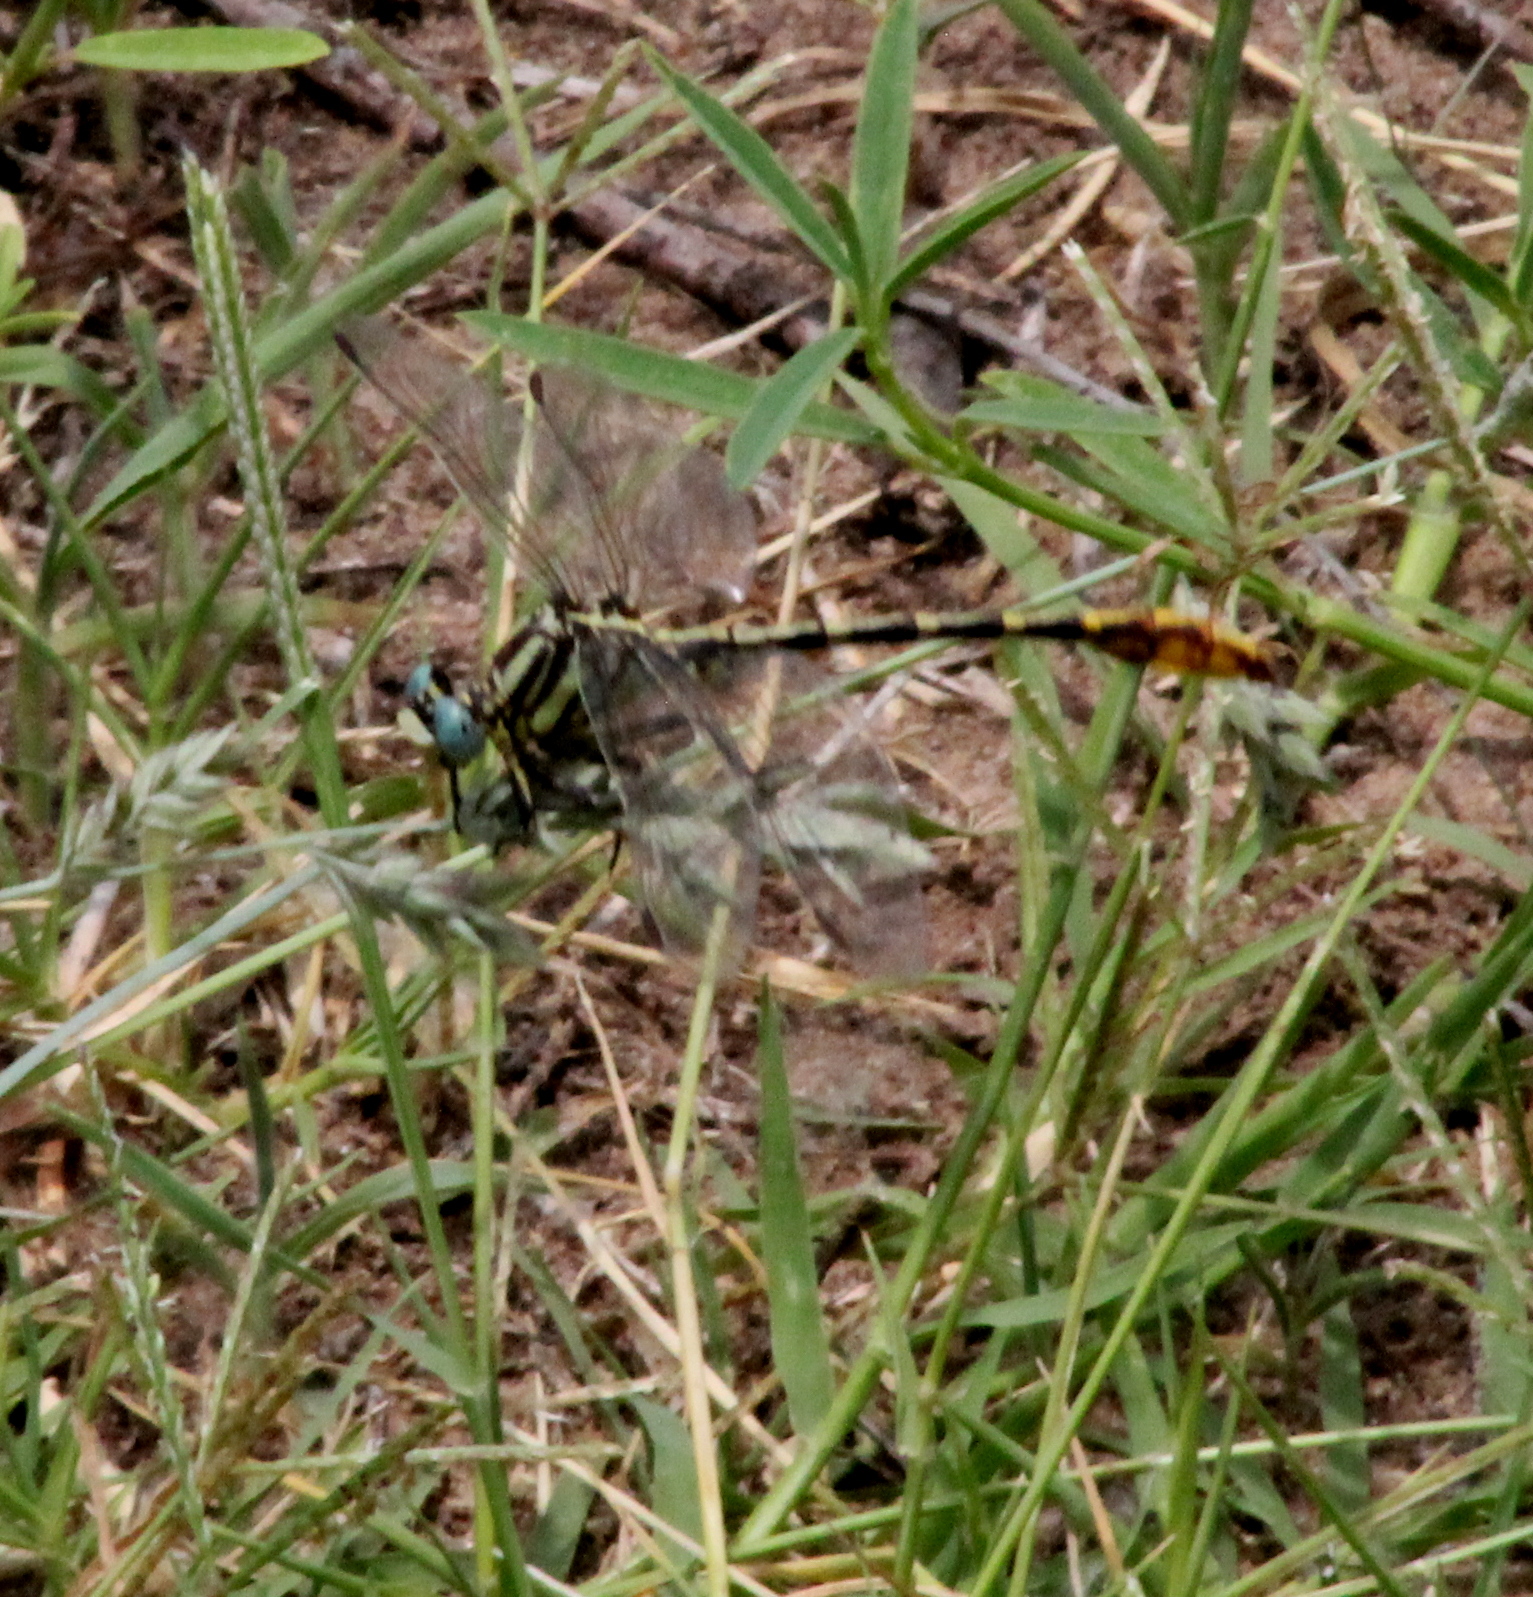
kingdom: Animalia
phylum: Arthropoda
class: Insecta
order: Odonata
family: Gomphidae
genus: Phanogomphus
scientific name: Phanogomphus militaris
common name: Sulphur-tipped clubtail
